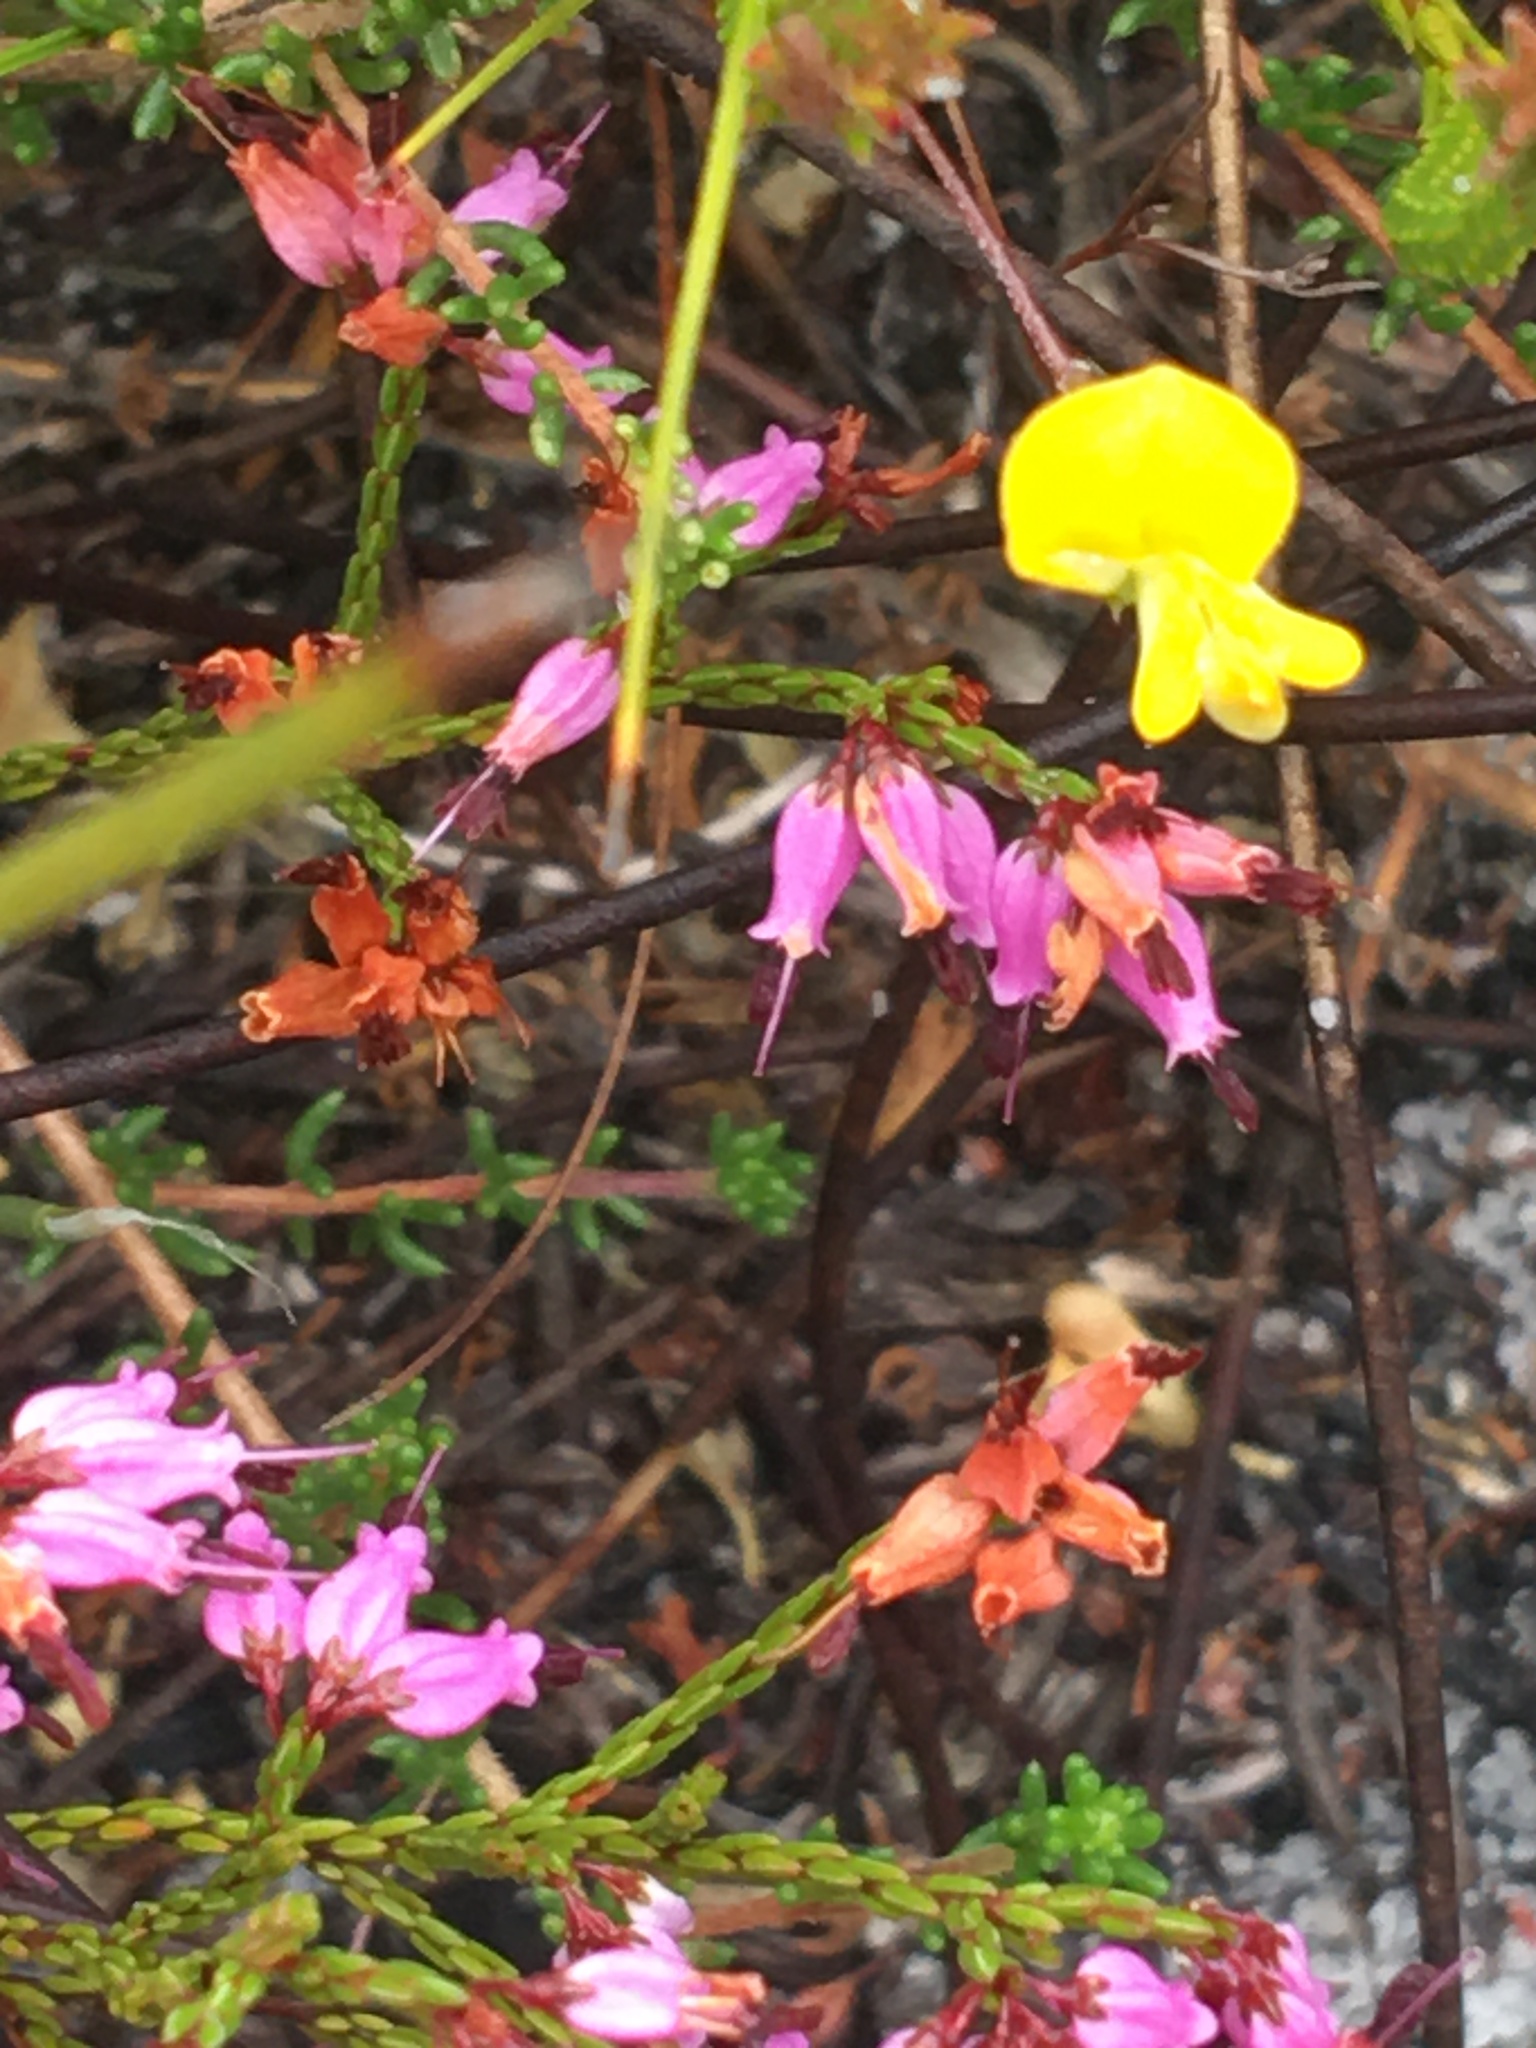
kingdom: Plantae
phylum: Tracheophyta
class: Magnoliopsida
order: Ericales
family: Ericaceae
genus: Erica
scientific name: Erica equisetifolia
